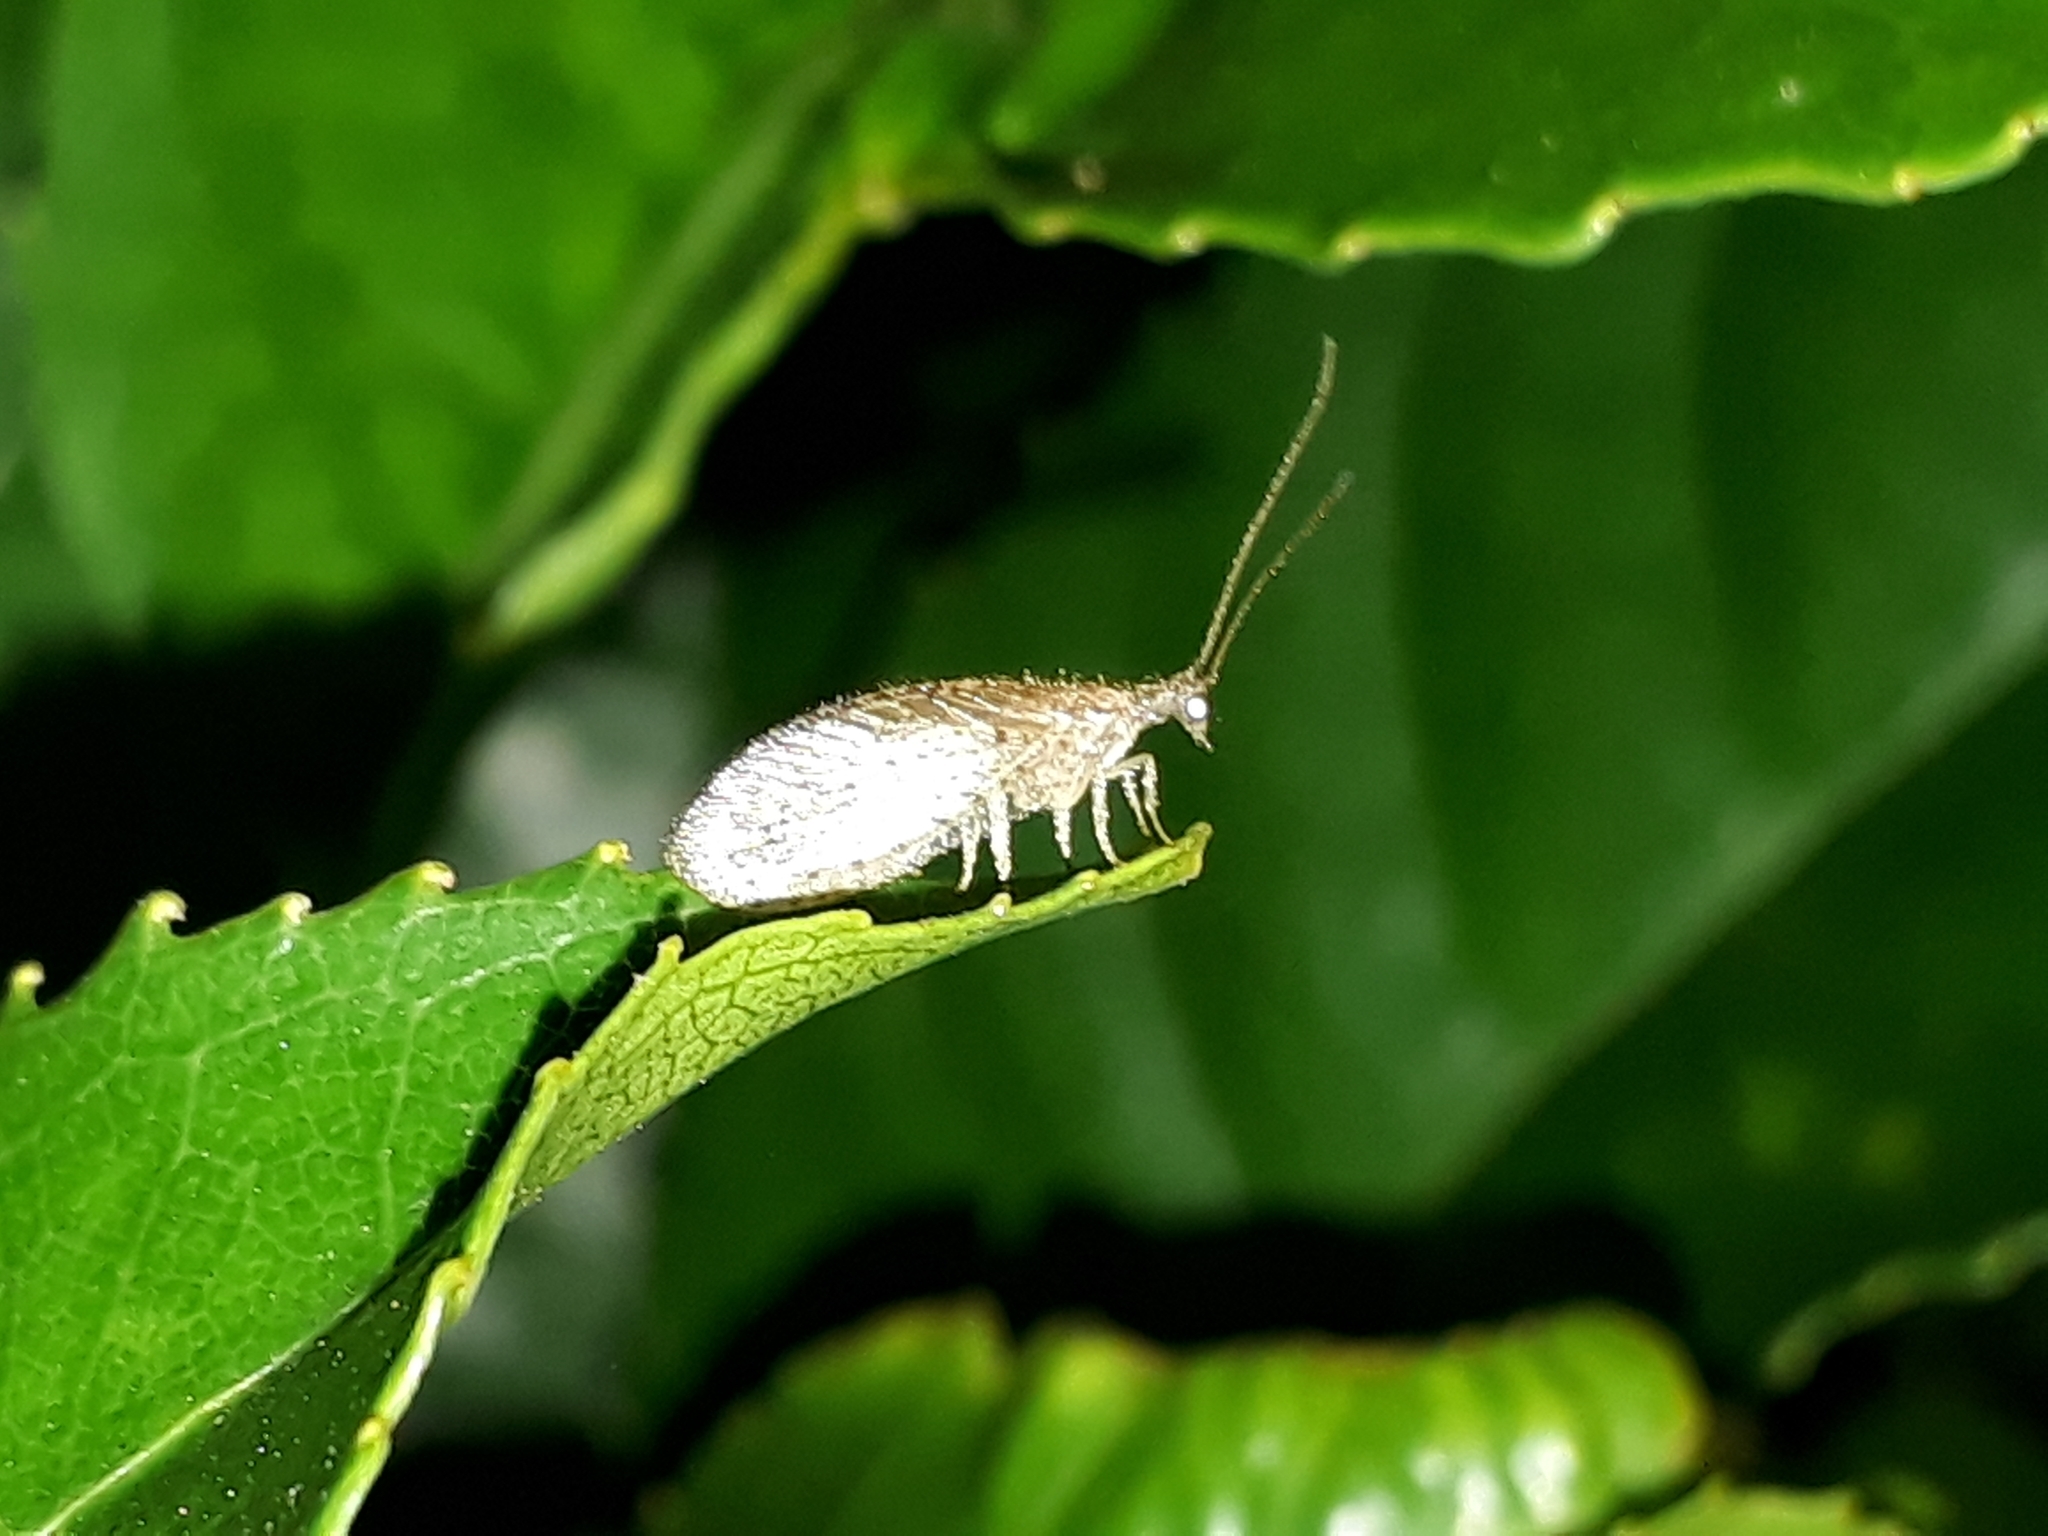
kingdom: Animalia
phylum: Arthropoda
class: Insecta
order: Neuroptera
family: Hemerobiidae
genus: Micromus
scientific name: Micromus tasmaniae
